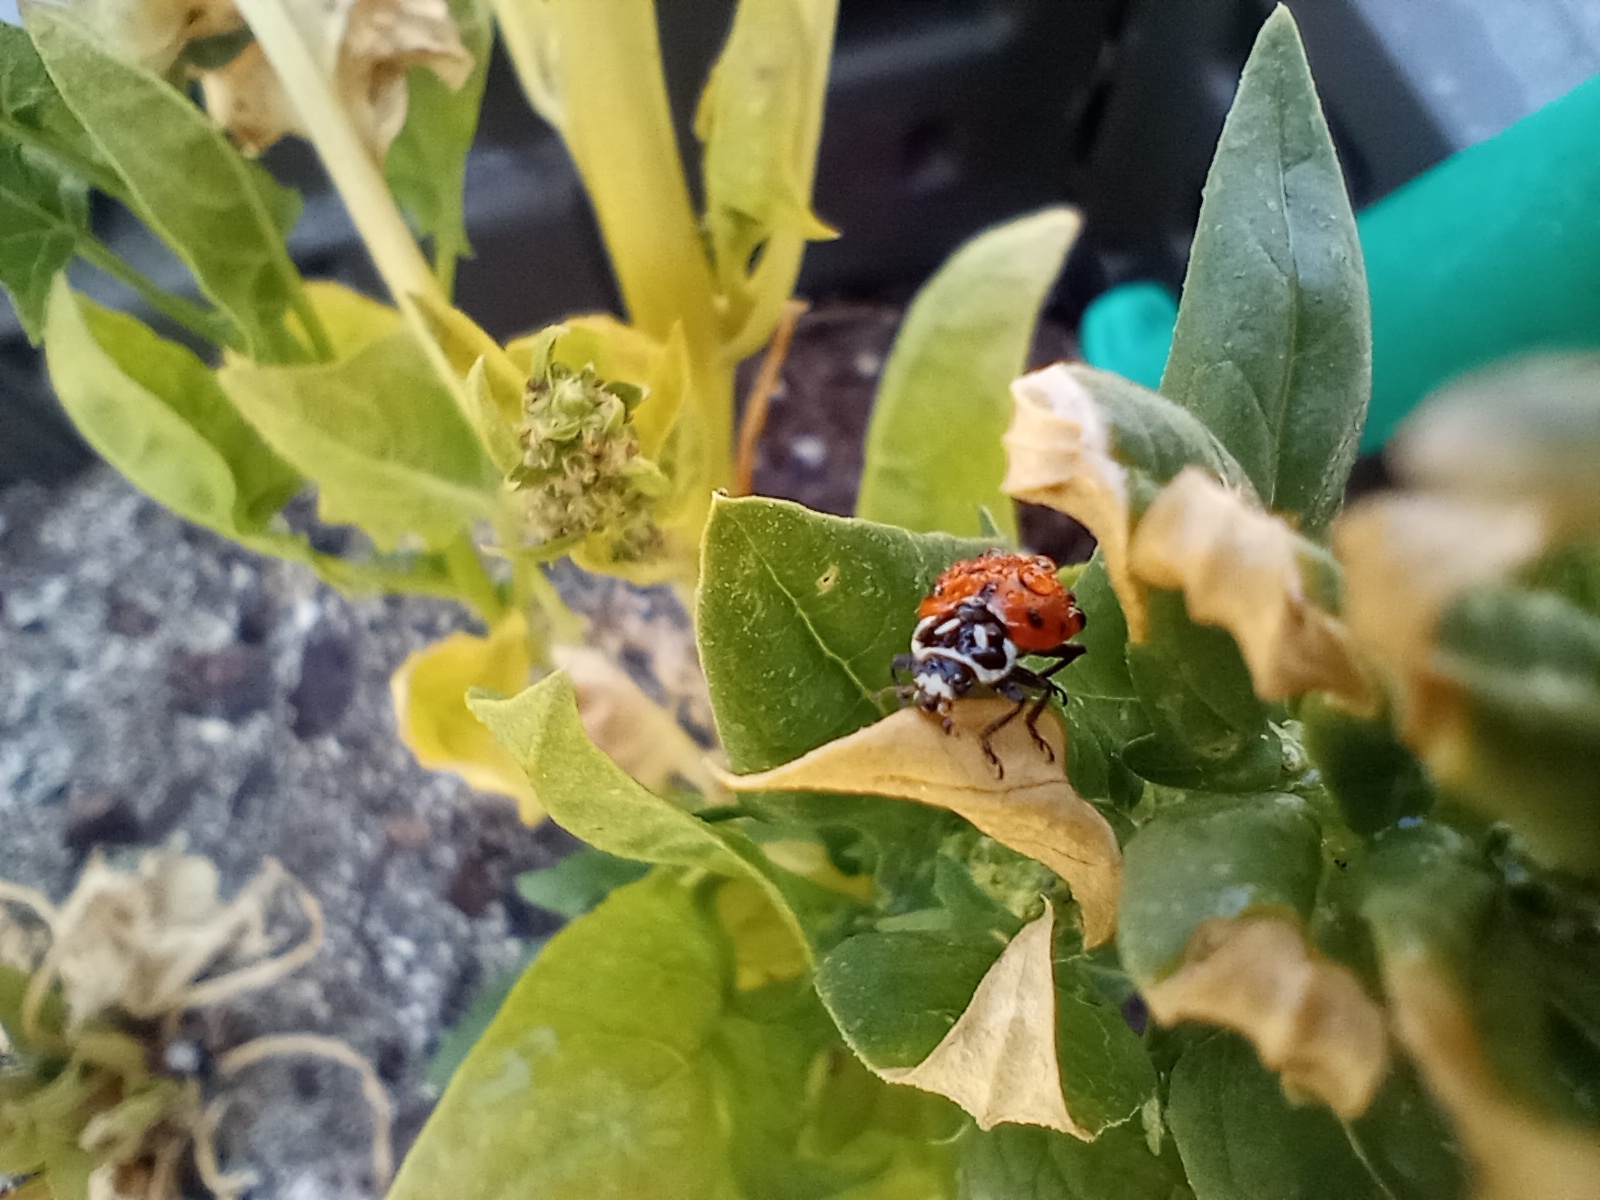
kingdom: Animalia
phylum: Arthropoda
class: Insecta
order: Coleoptera
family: Coccinellidae
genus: Hippodamia
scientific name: Hippodamia convergens
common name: Convergent lady beetle
